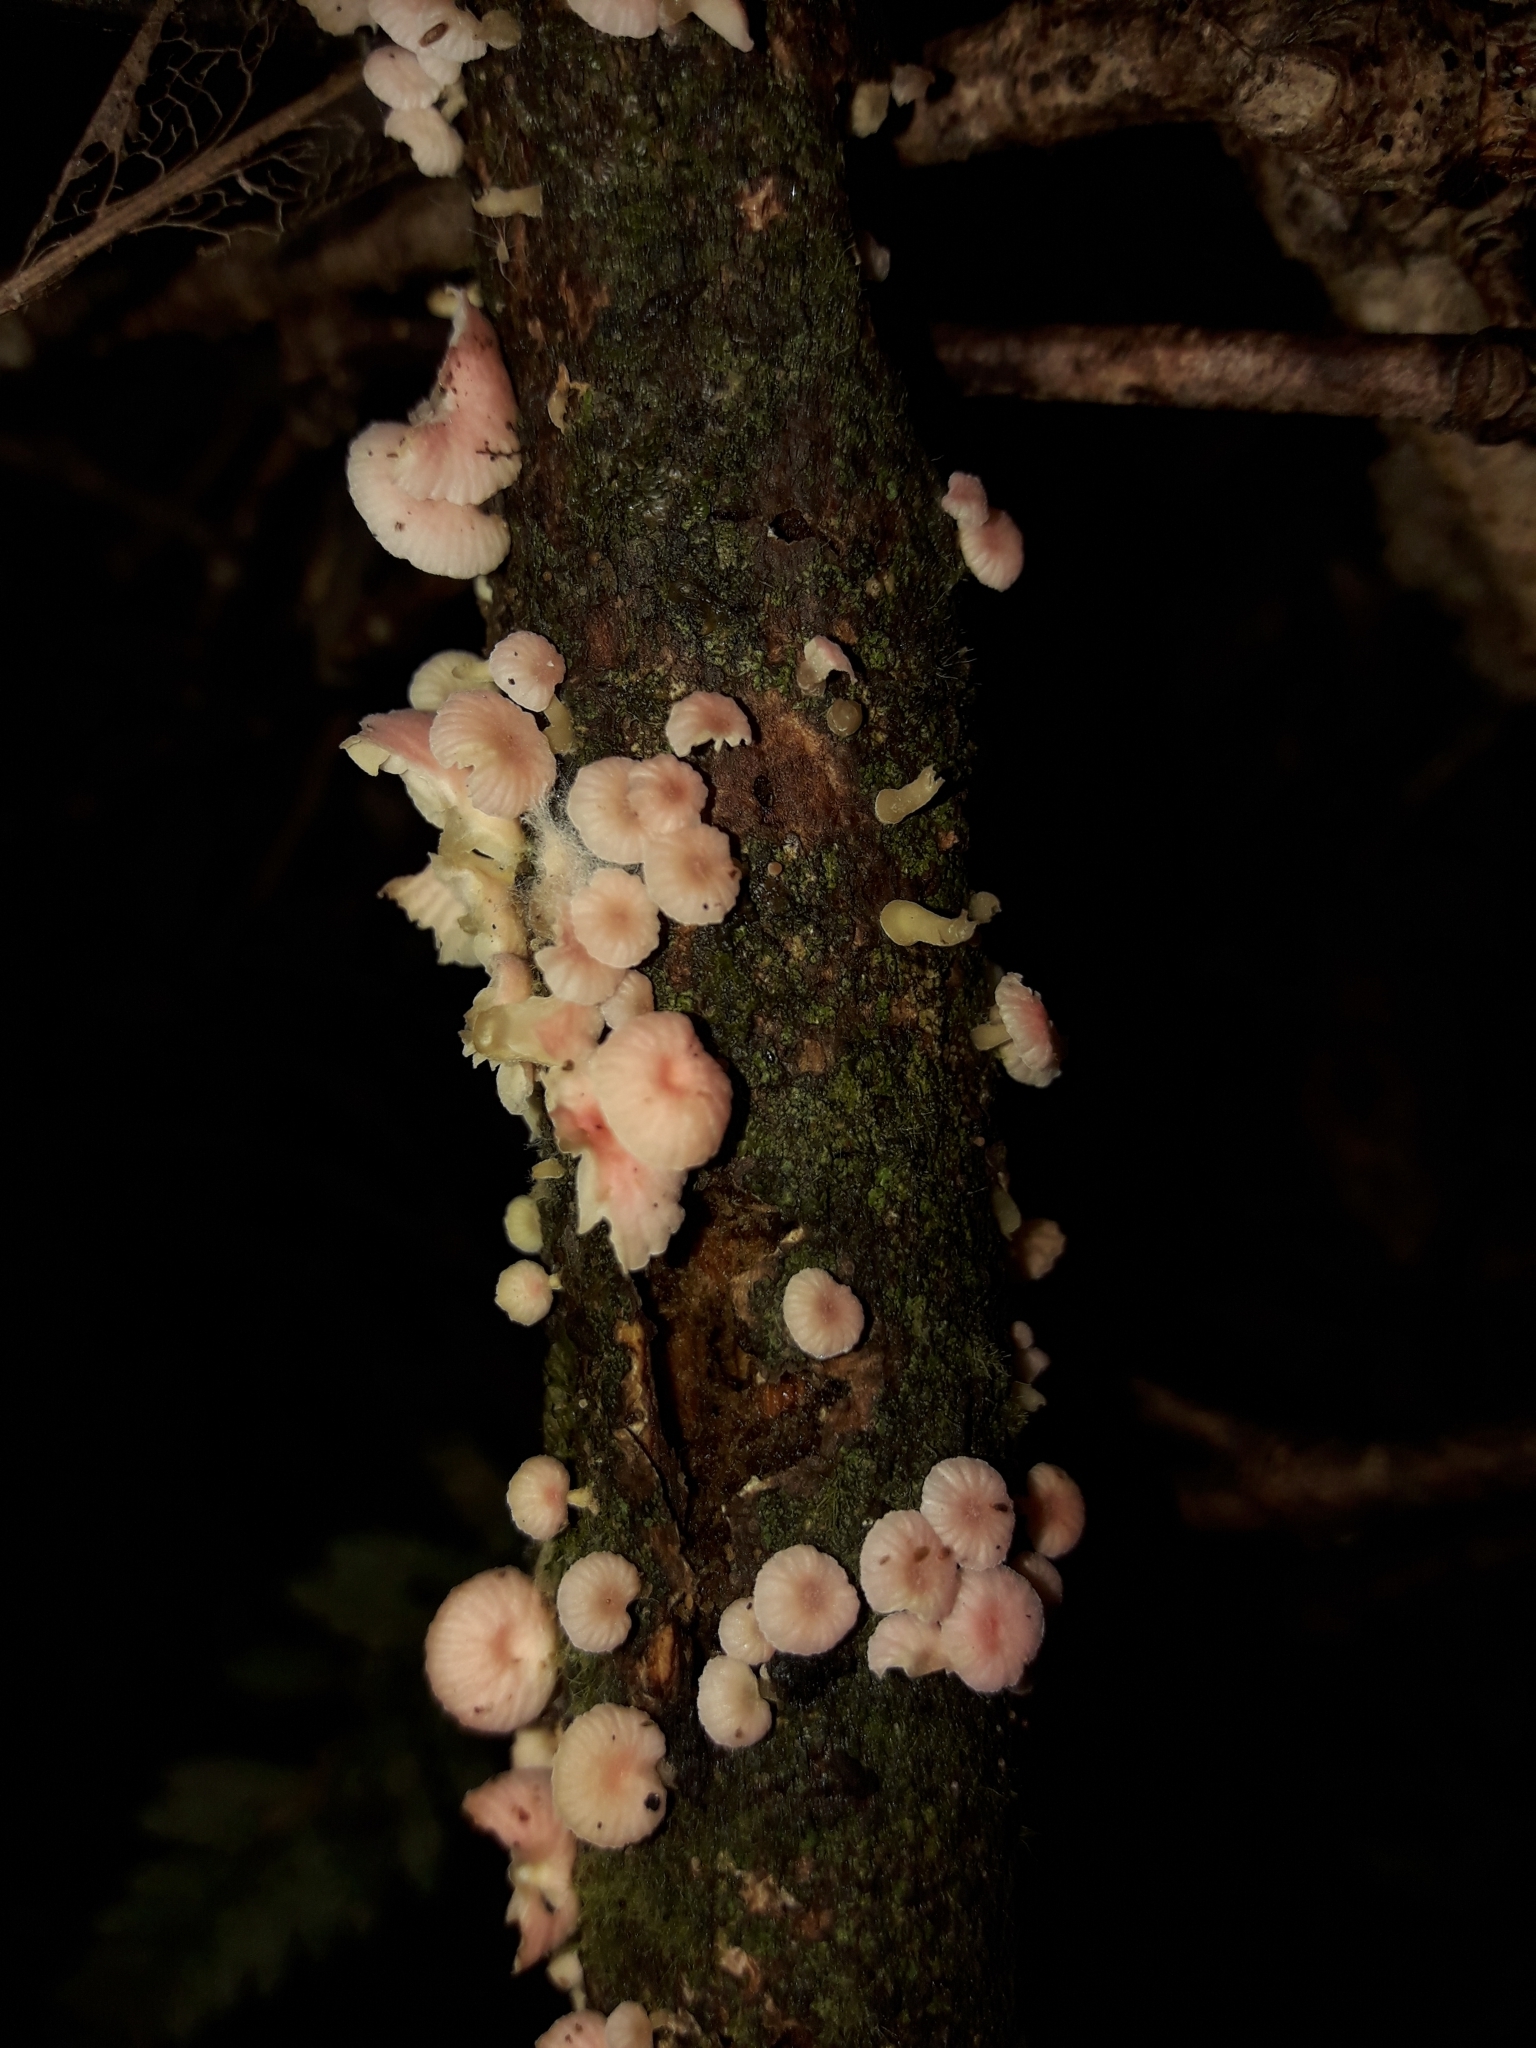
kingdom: Fungi
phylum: Basidiomycota
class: Agaricomycetes
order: Agaricales
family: Mycenaceae
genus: Mycena
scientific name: Mycena roseoflava
